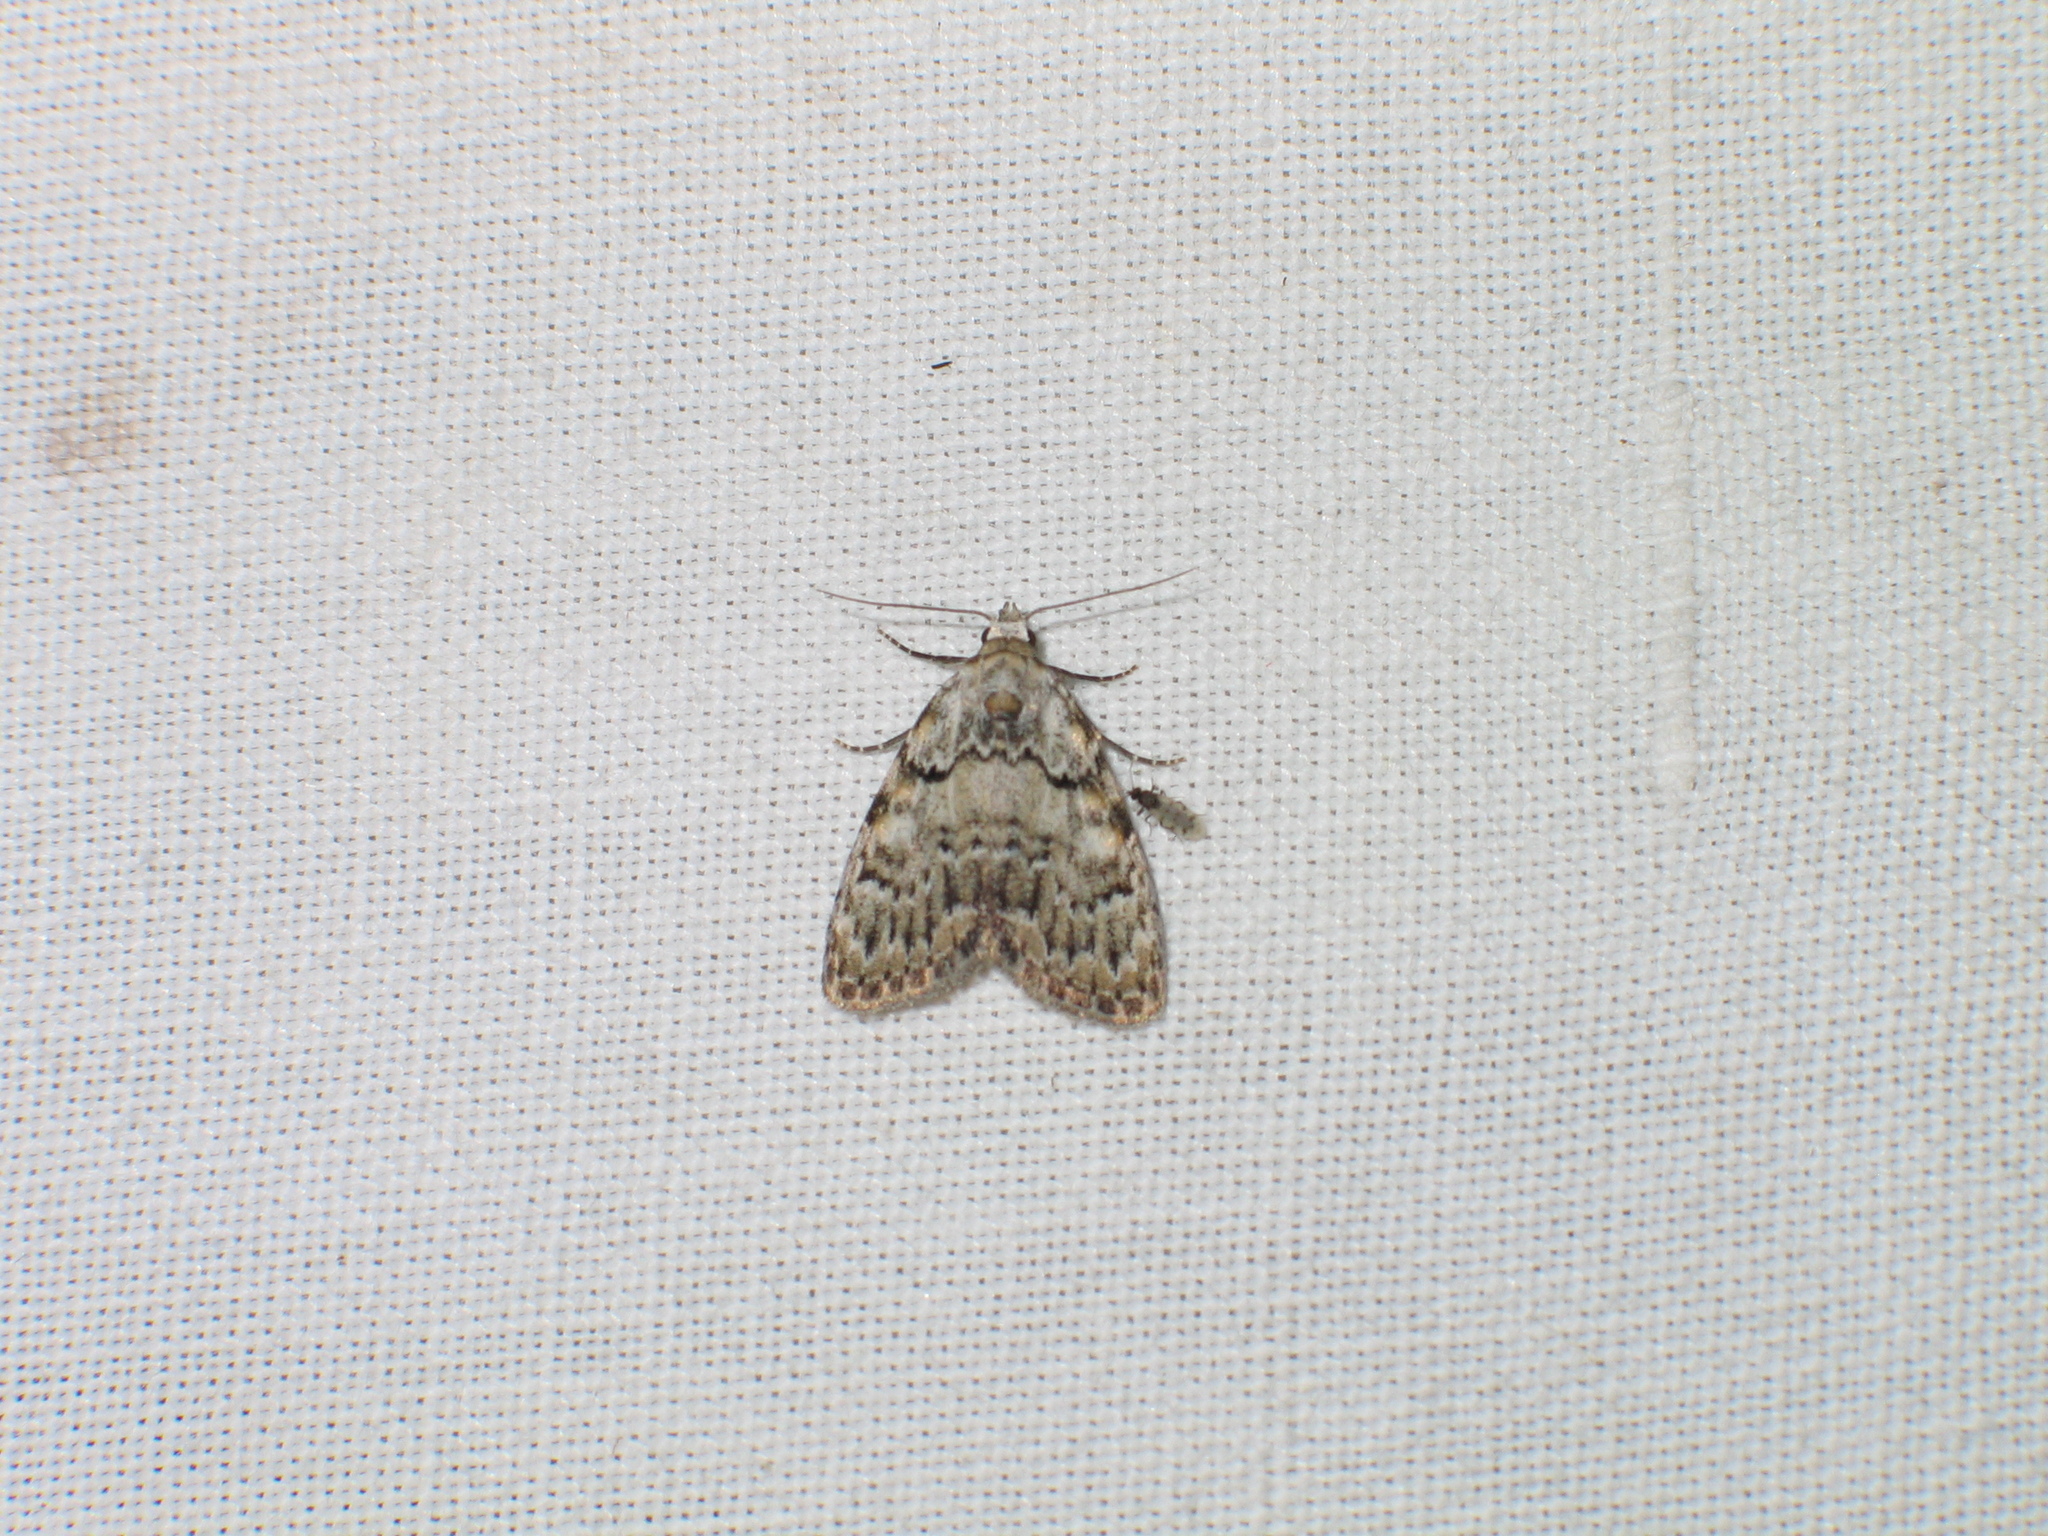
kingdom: Animalia
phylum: Arthropoda
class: Insecta
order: Lepidoptera
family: Nolidae
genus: Meganola
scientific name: Meganola strigula
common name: Small black arches
